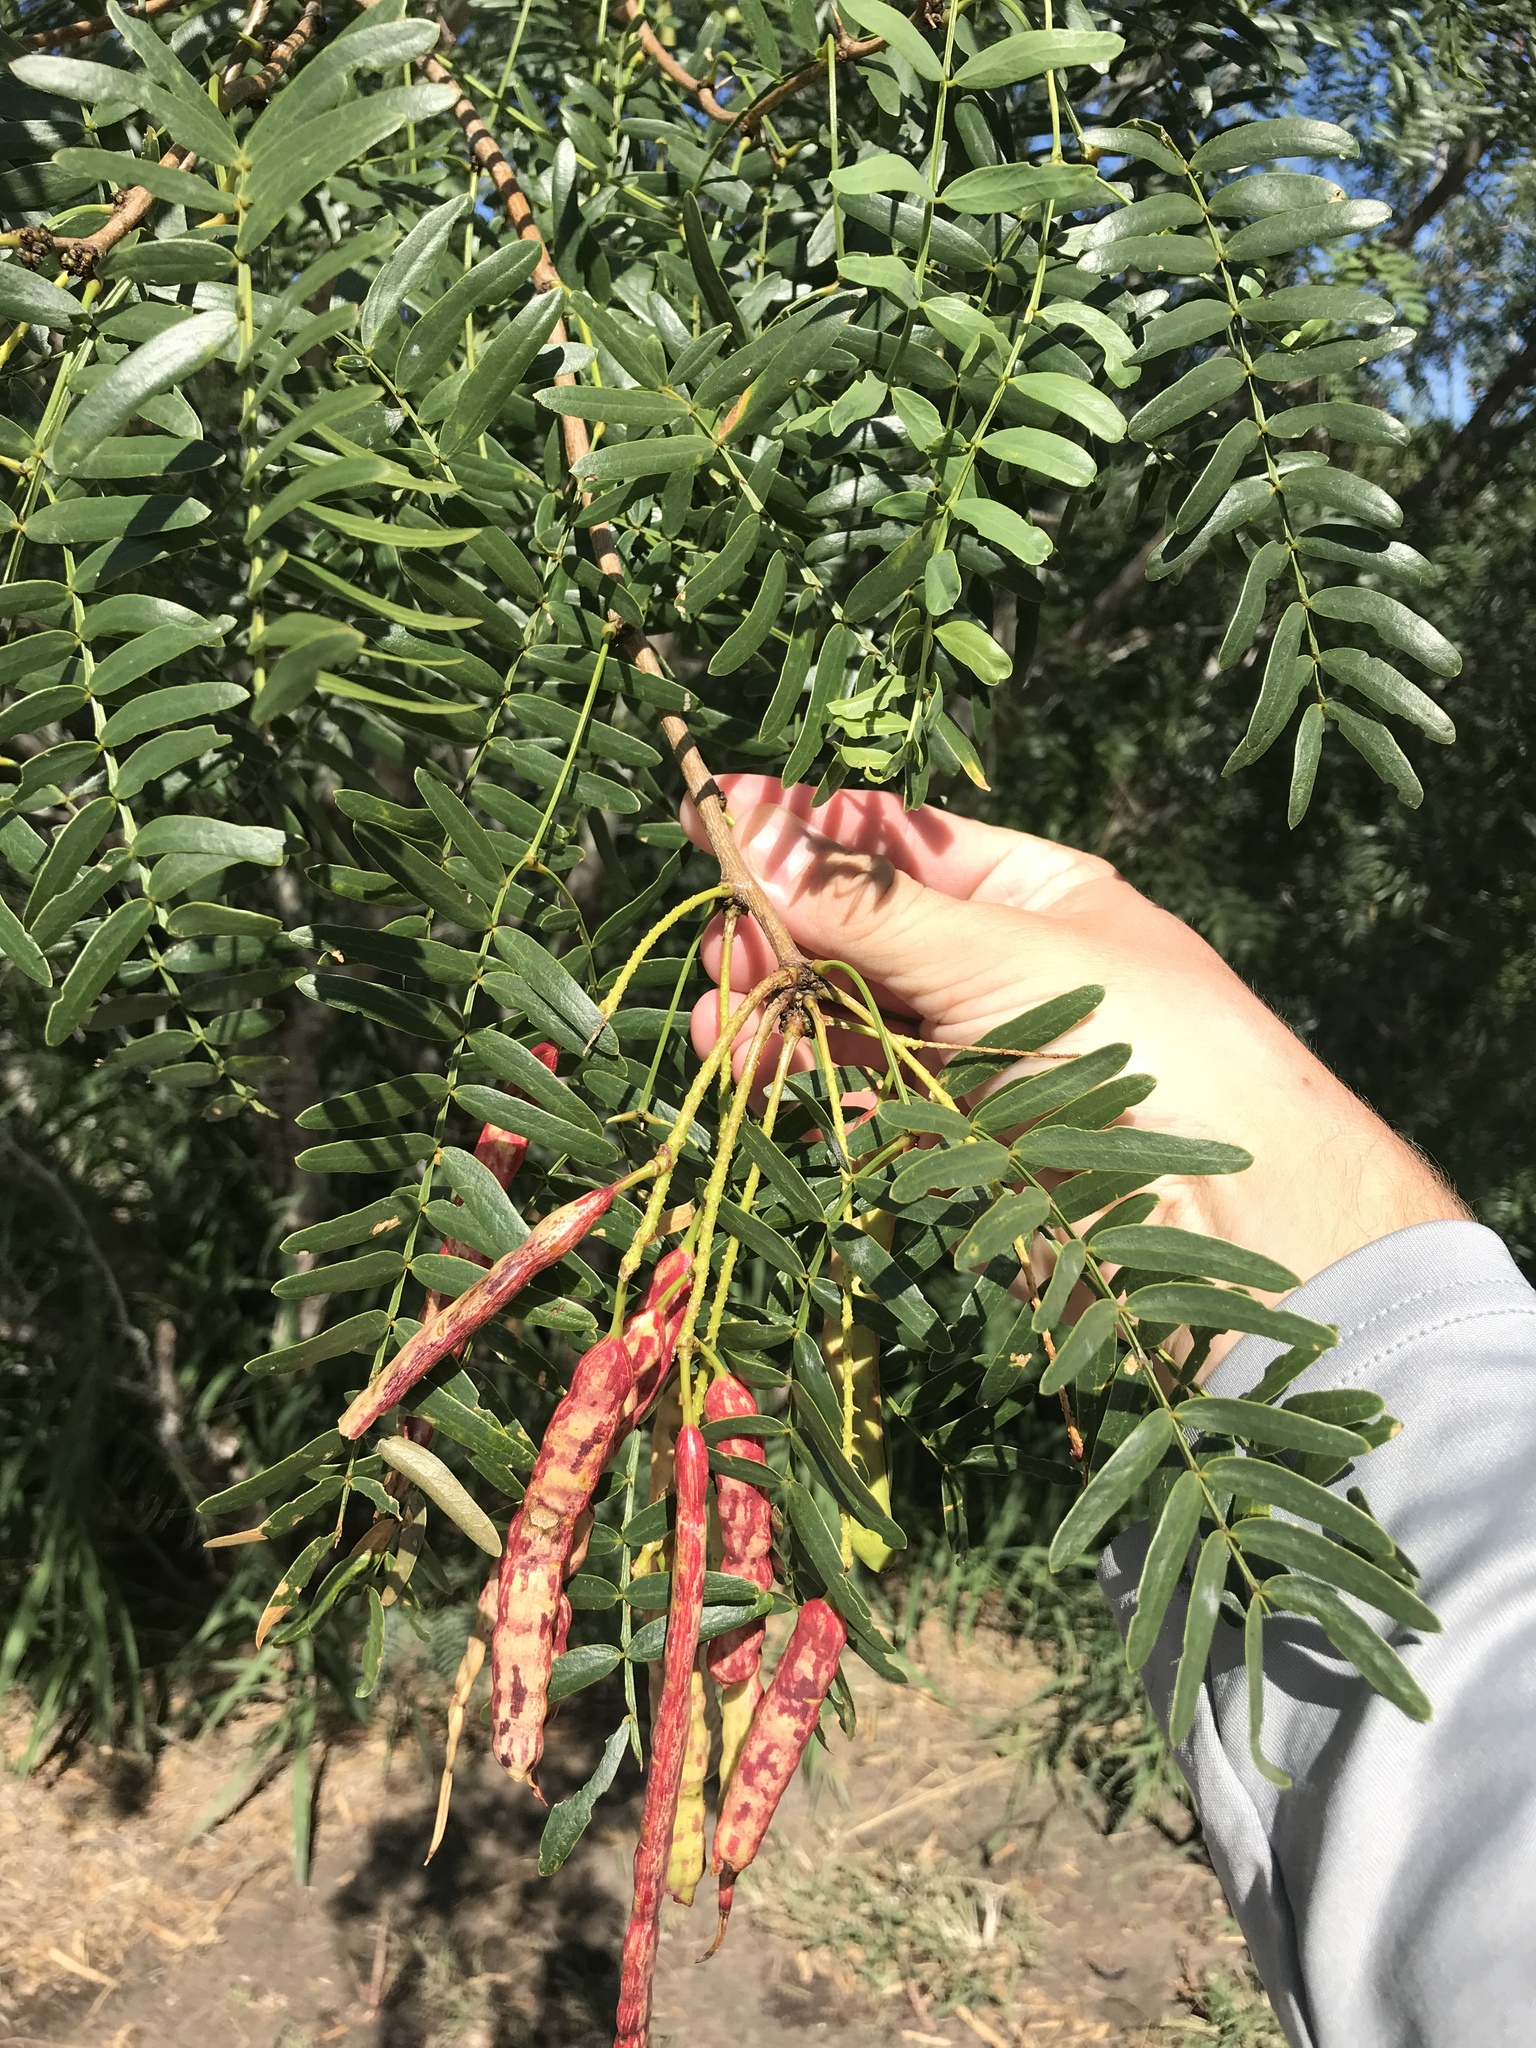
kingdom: Plantae
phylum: Tracheophyta
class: Magnoliopsida
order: Fabales
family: Fabaceae
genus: Prosopis
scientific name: Prosopis glandulosa
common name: Honey mesquite
